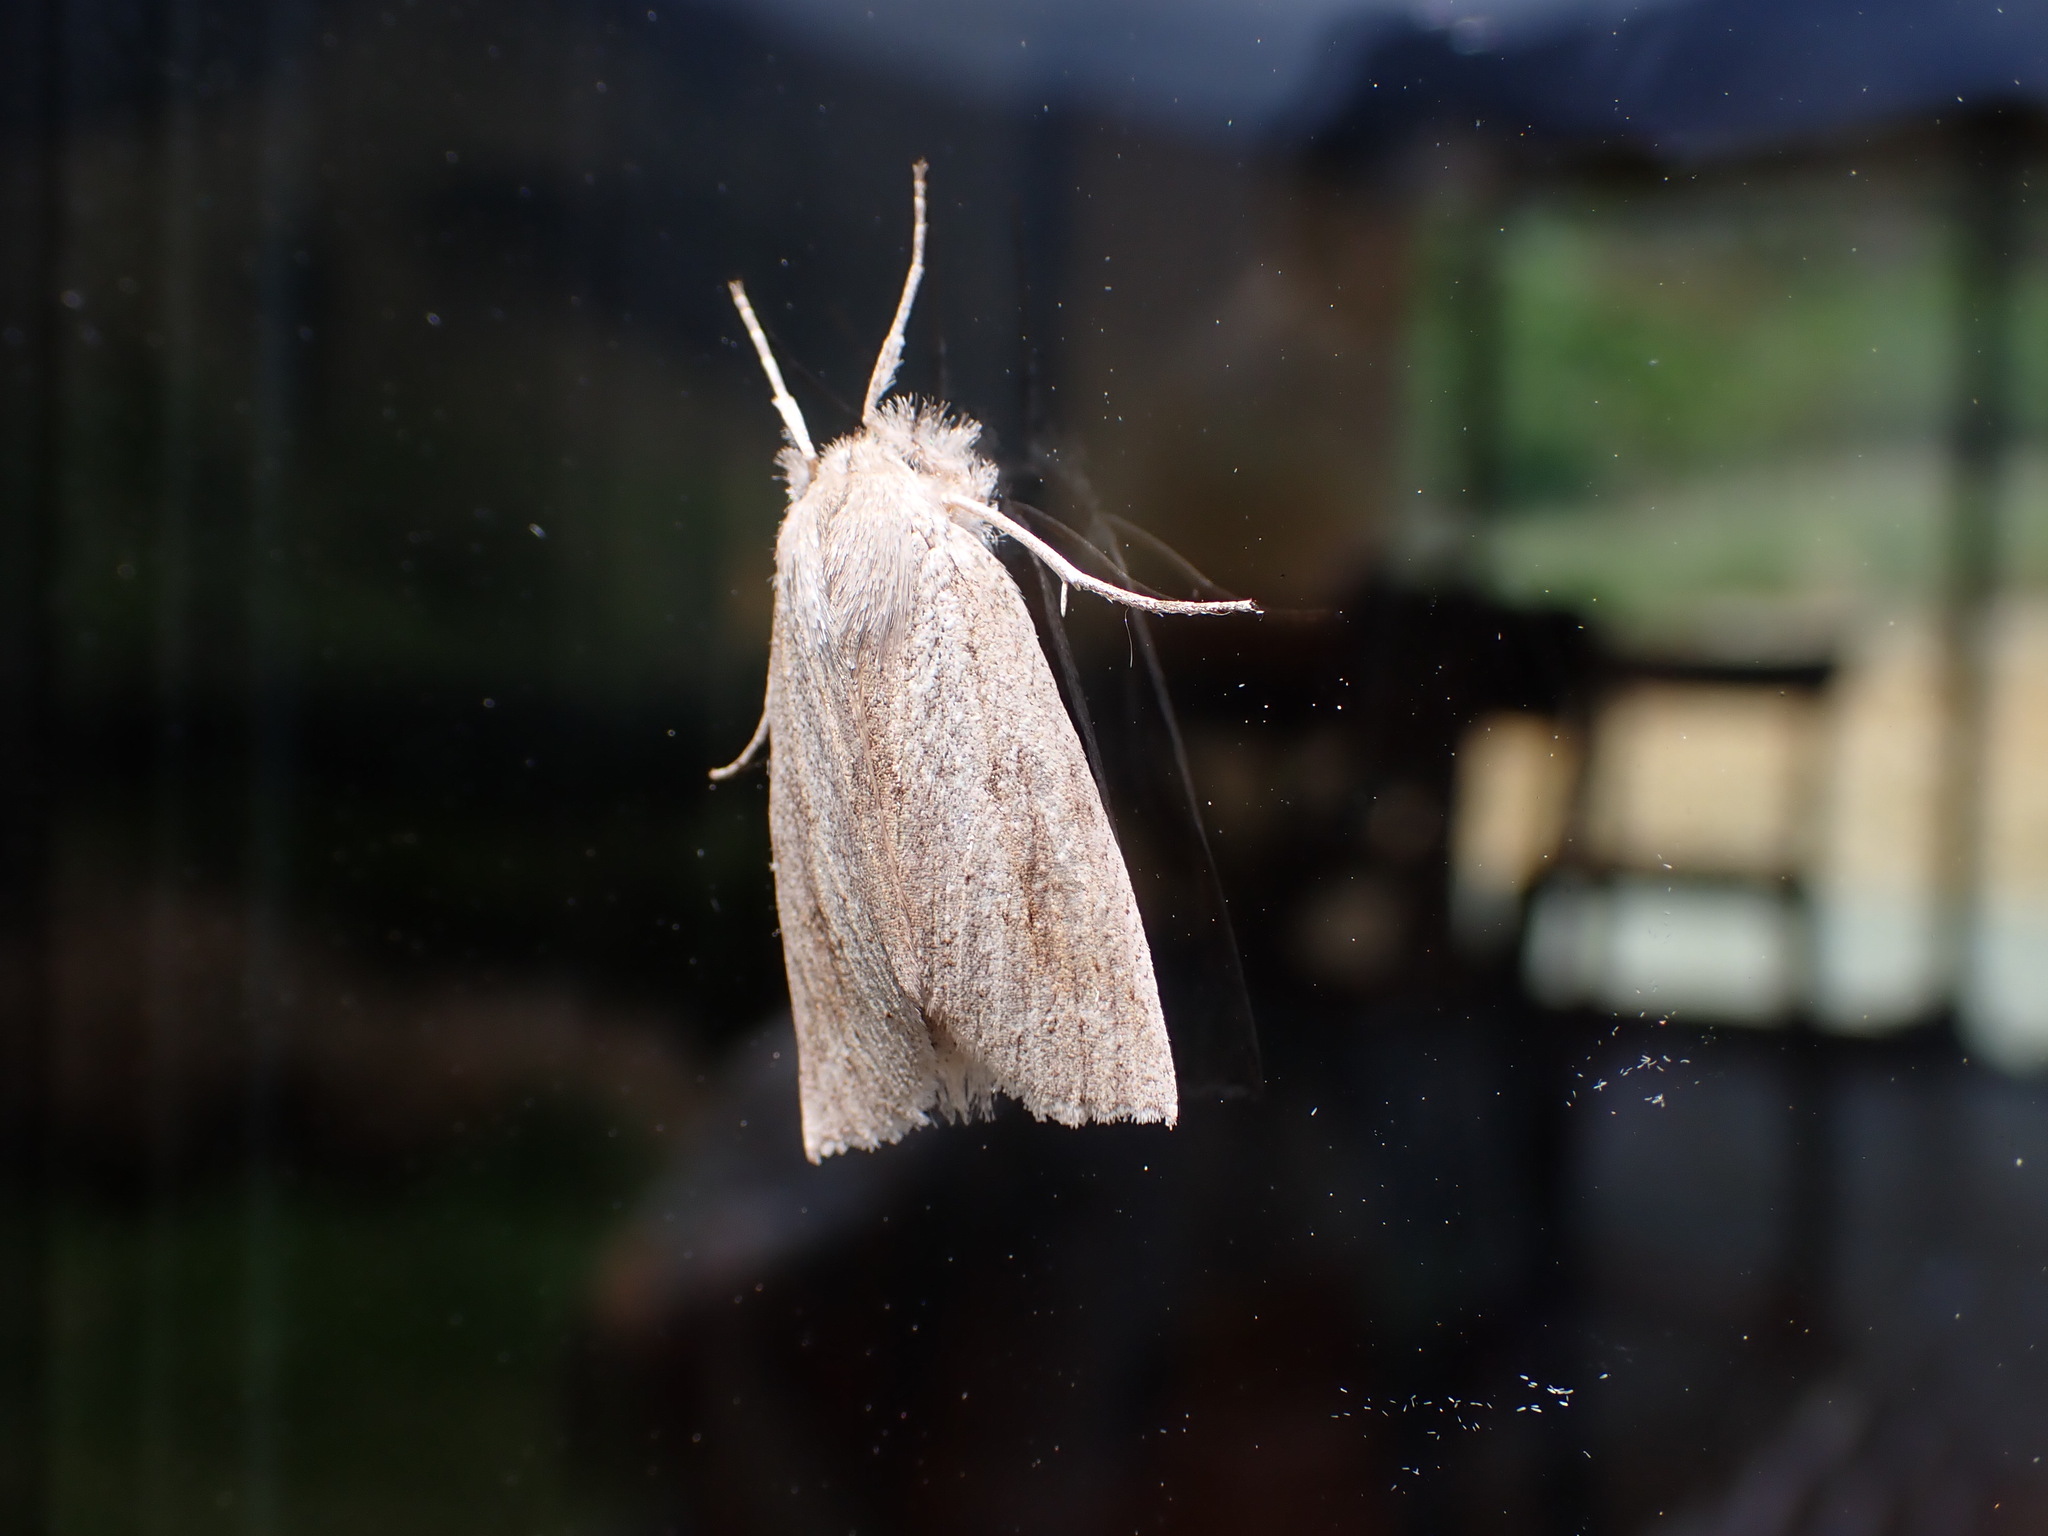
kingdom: Animalia
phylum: Arthropoda
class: Insecta
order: Lepidoptera
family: Geometridae
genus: Declana
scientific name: Declana leptomera
